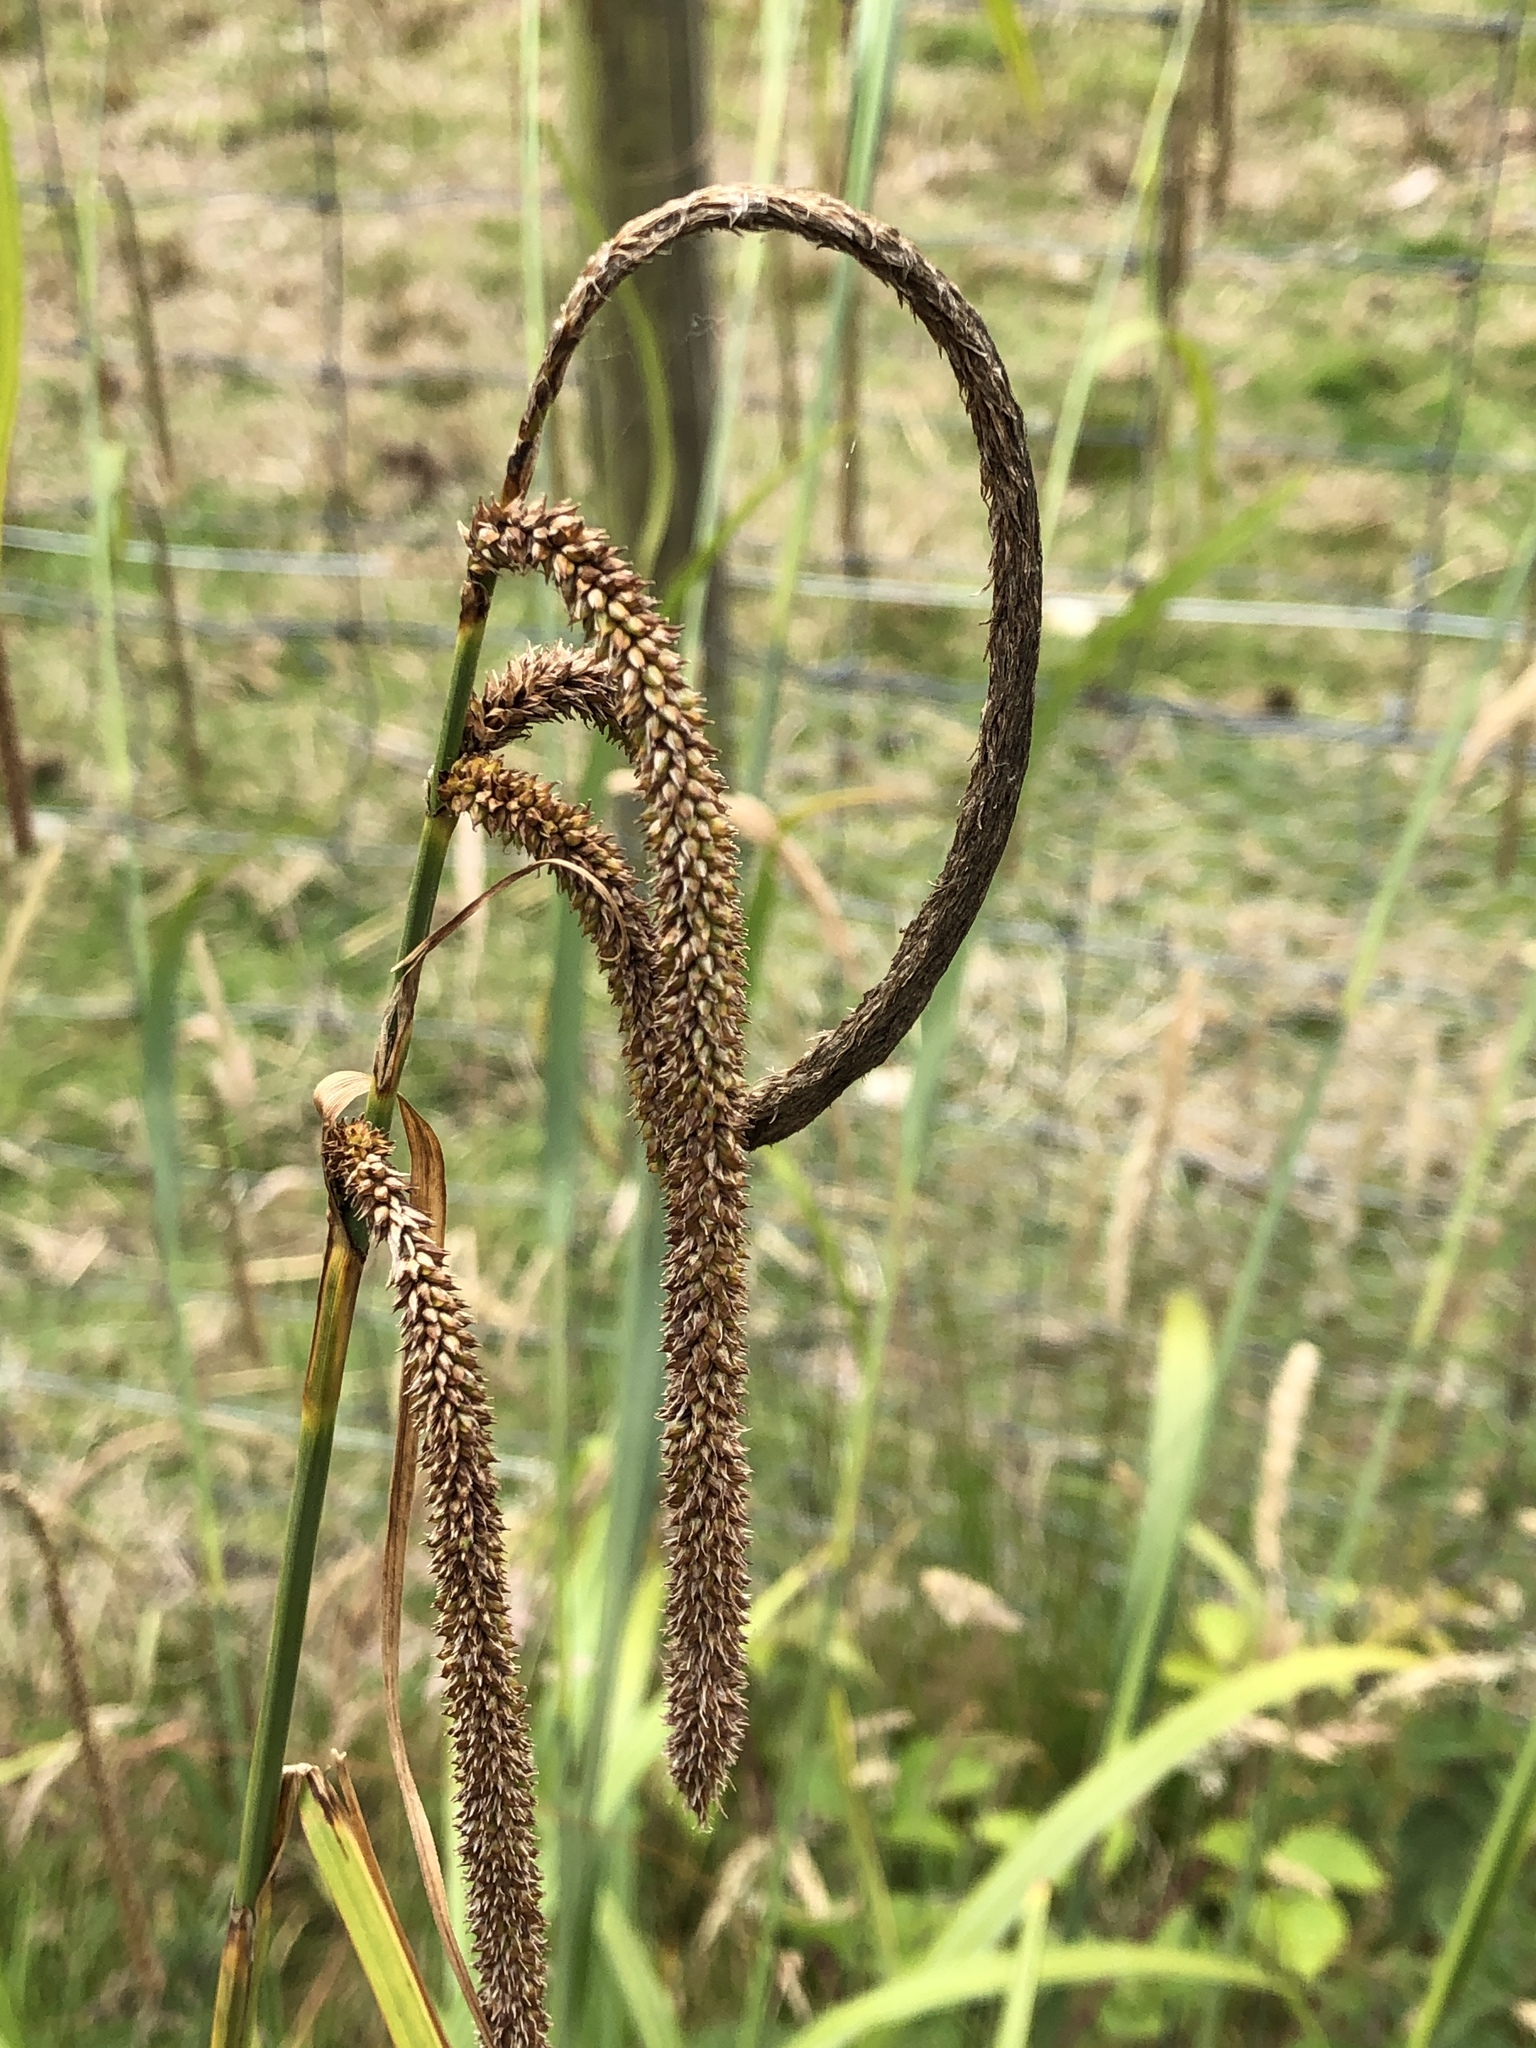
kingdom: Plantae
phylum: Tracheophyta
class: Liliopsida
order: Poales
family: Cyperaceae
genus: Carex
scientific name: Carex pendula
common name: Pendulous sedge
